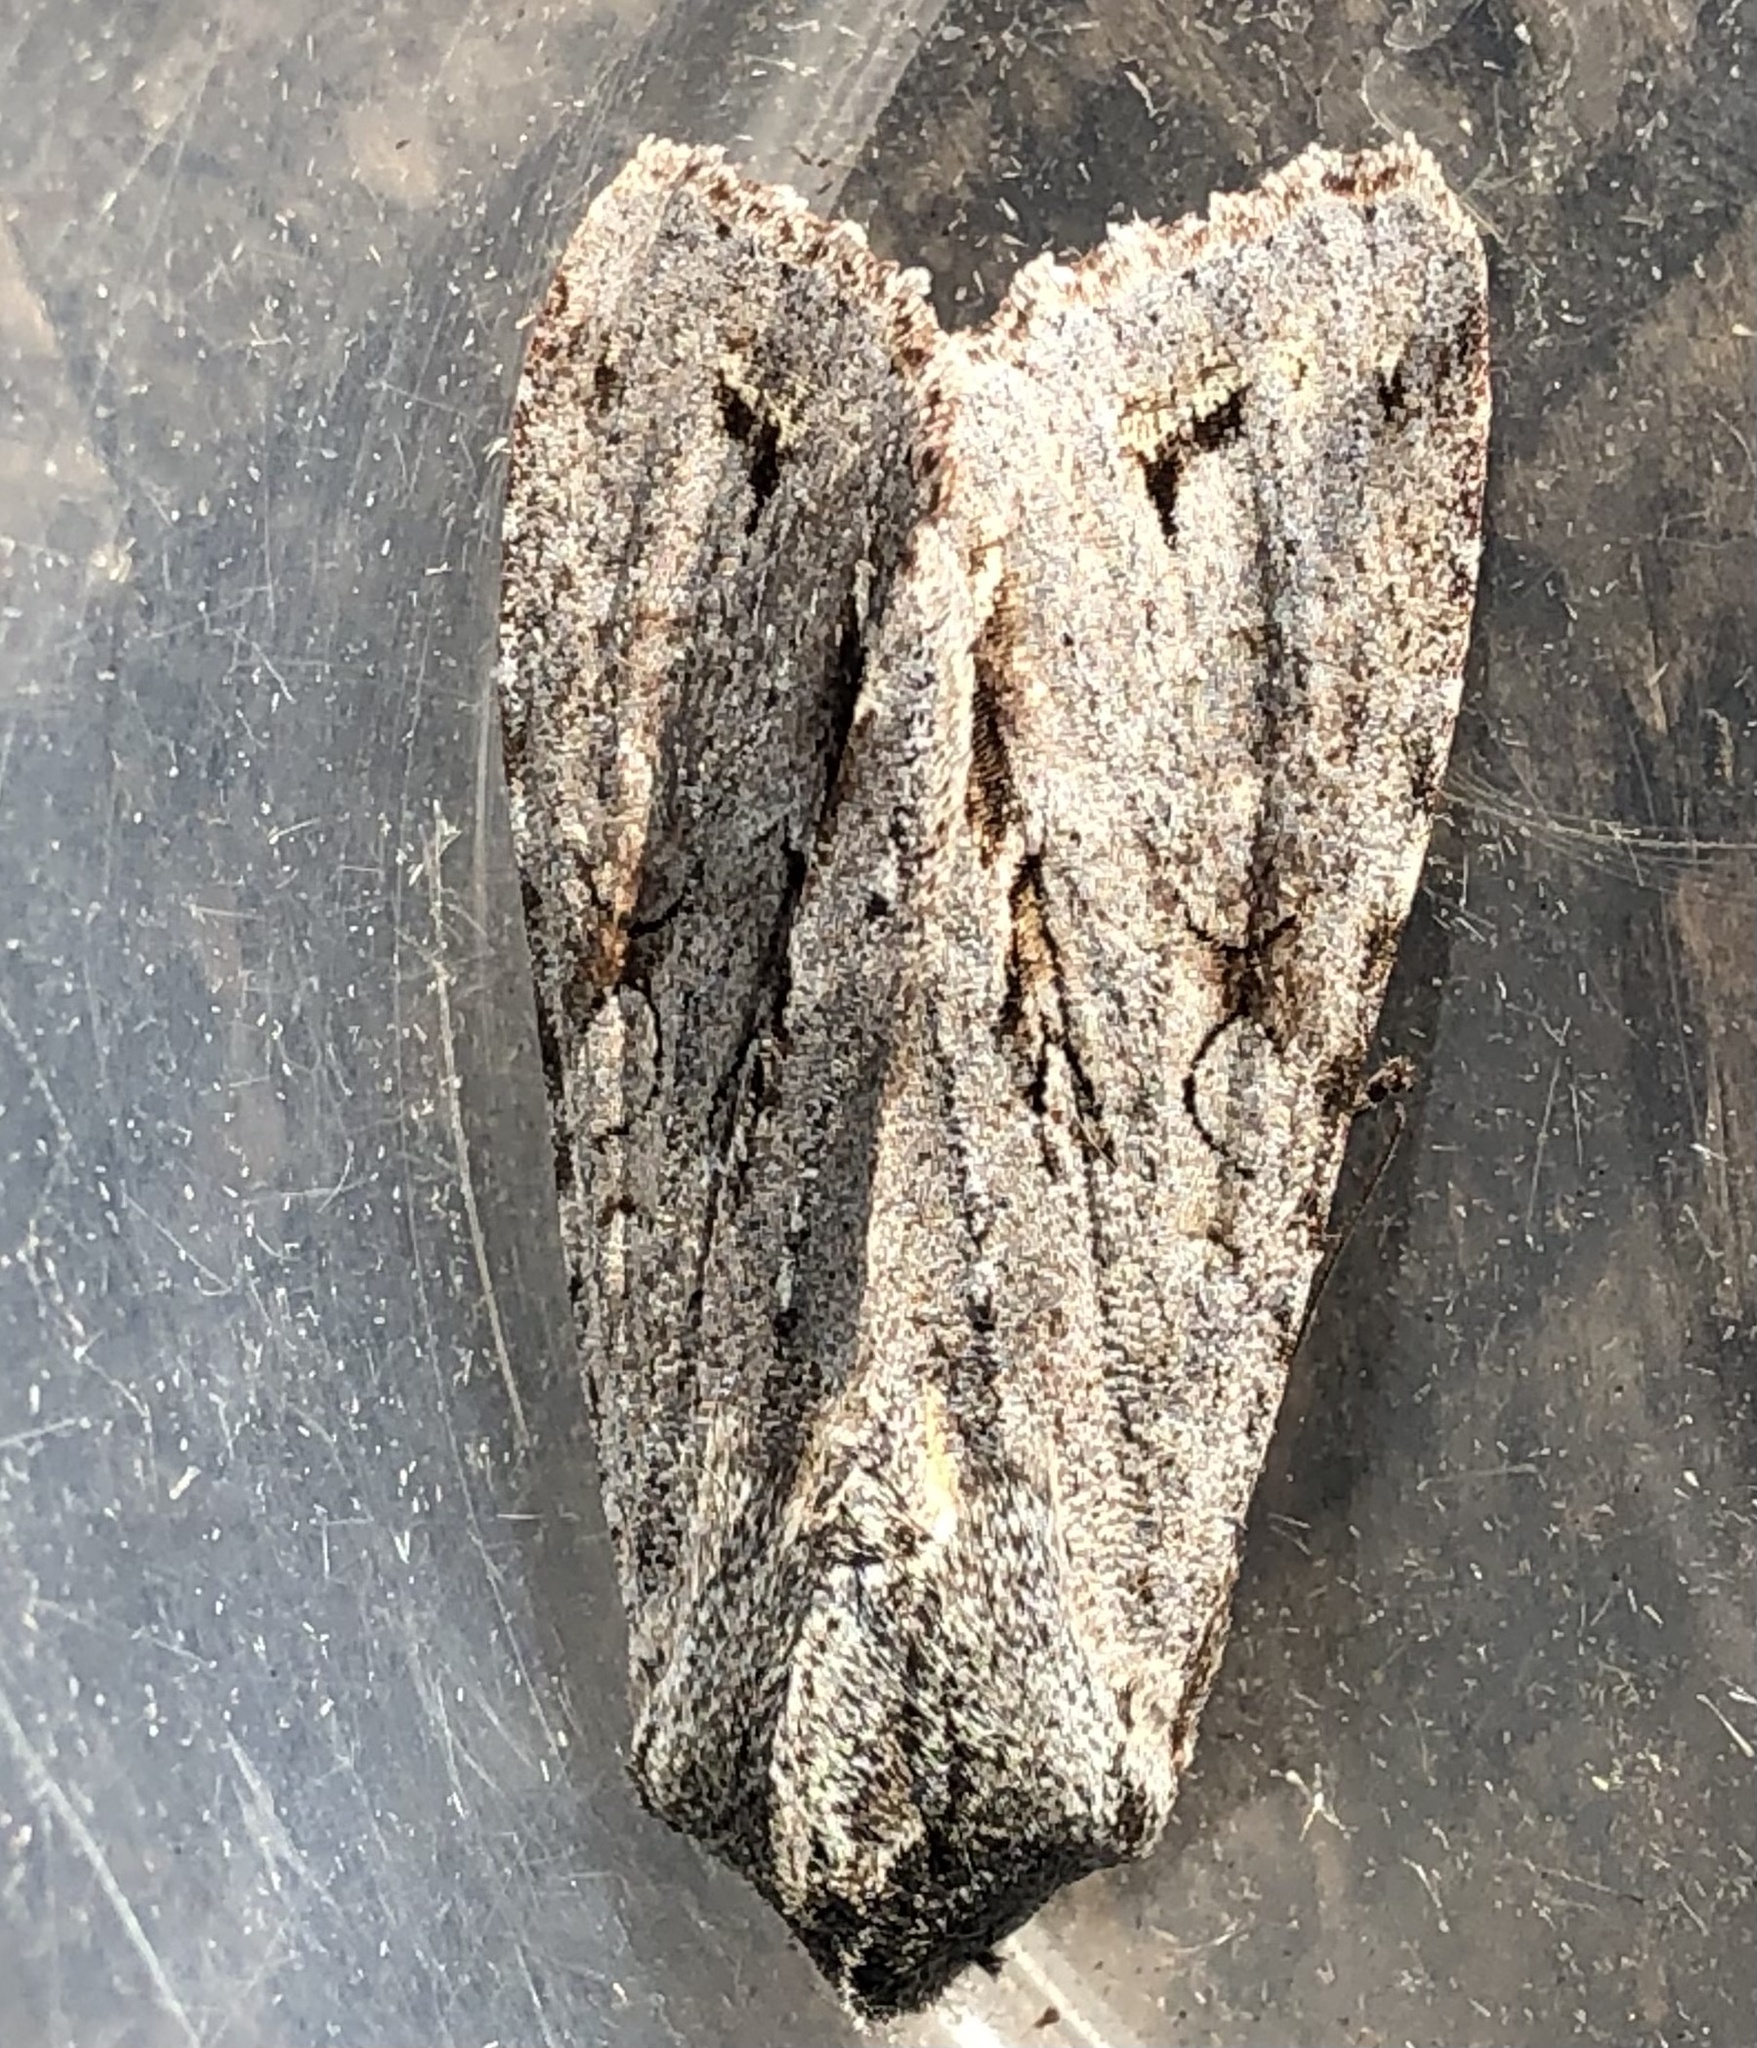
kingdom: Animalia
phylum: Arthropoda
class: Insecta
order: Lepidoptera
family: Noctuidae
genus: Ichneutica
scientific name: Ichneutica
